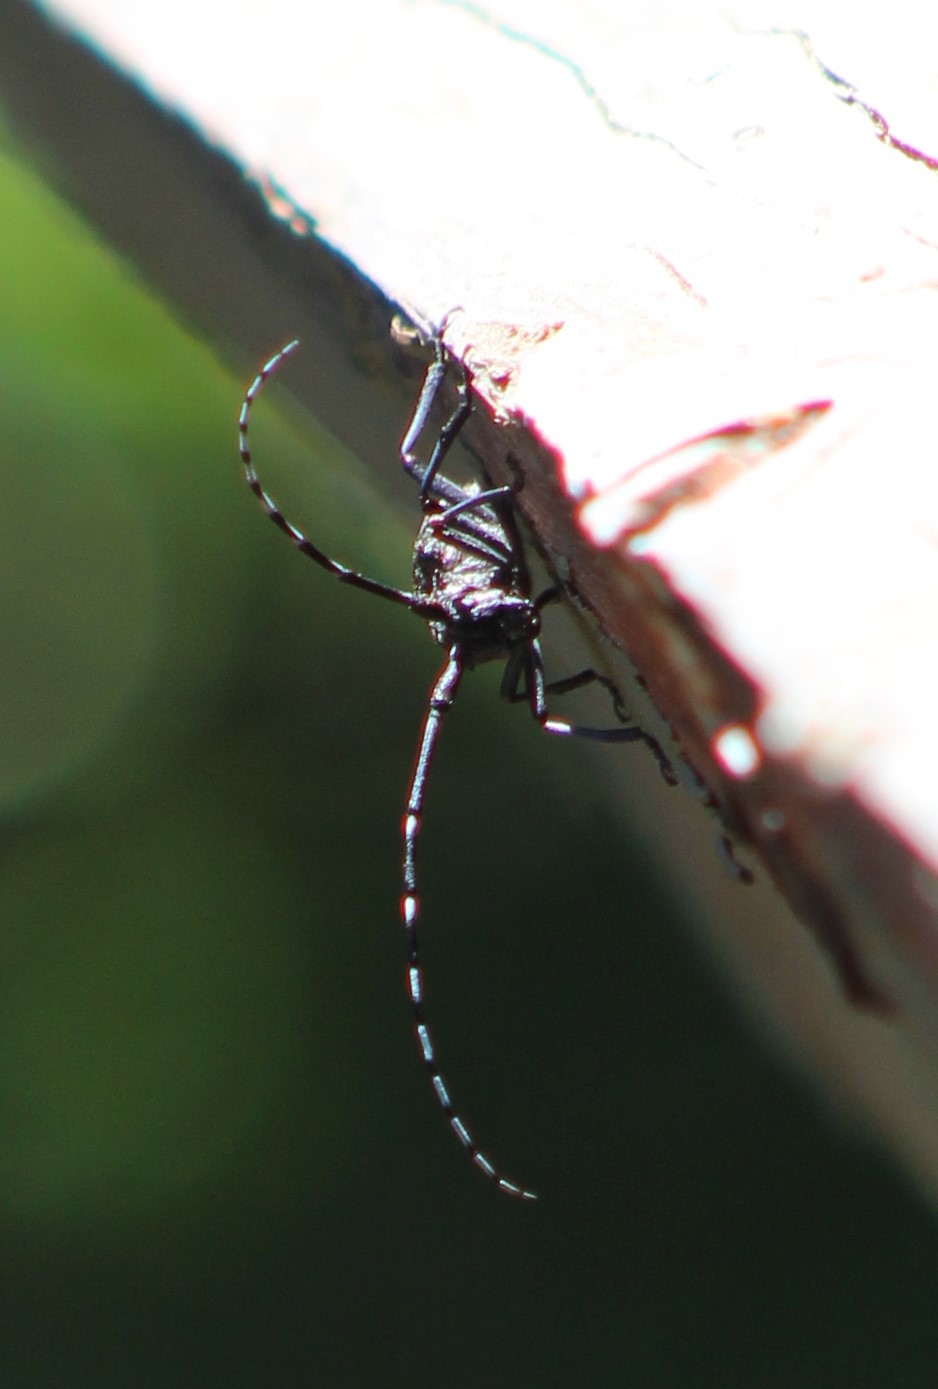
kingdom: Animalia
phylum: Arthropoda
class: Insecta
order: Coleoptera
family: Cerambycidae
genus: Monochamus
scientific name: Monochamus scutellatus
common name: White-spotted sawyer beetle
